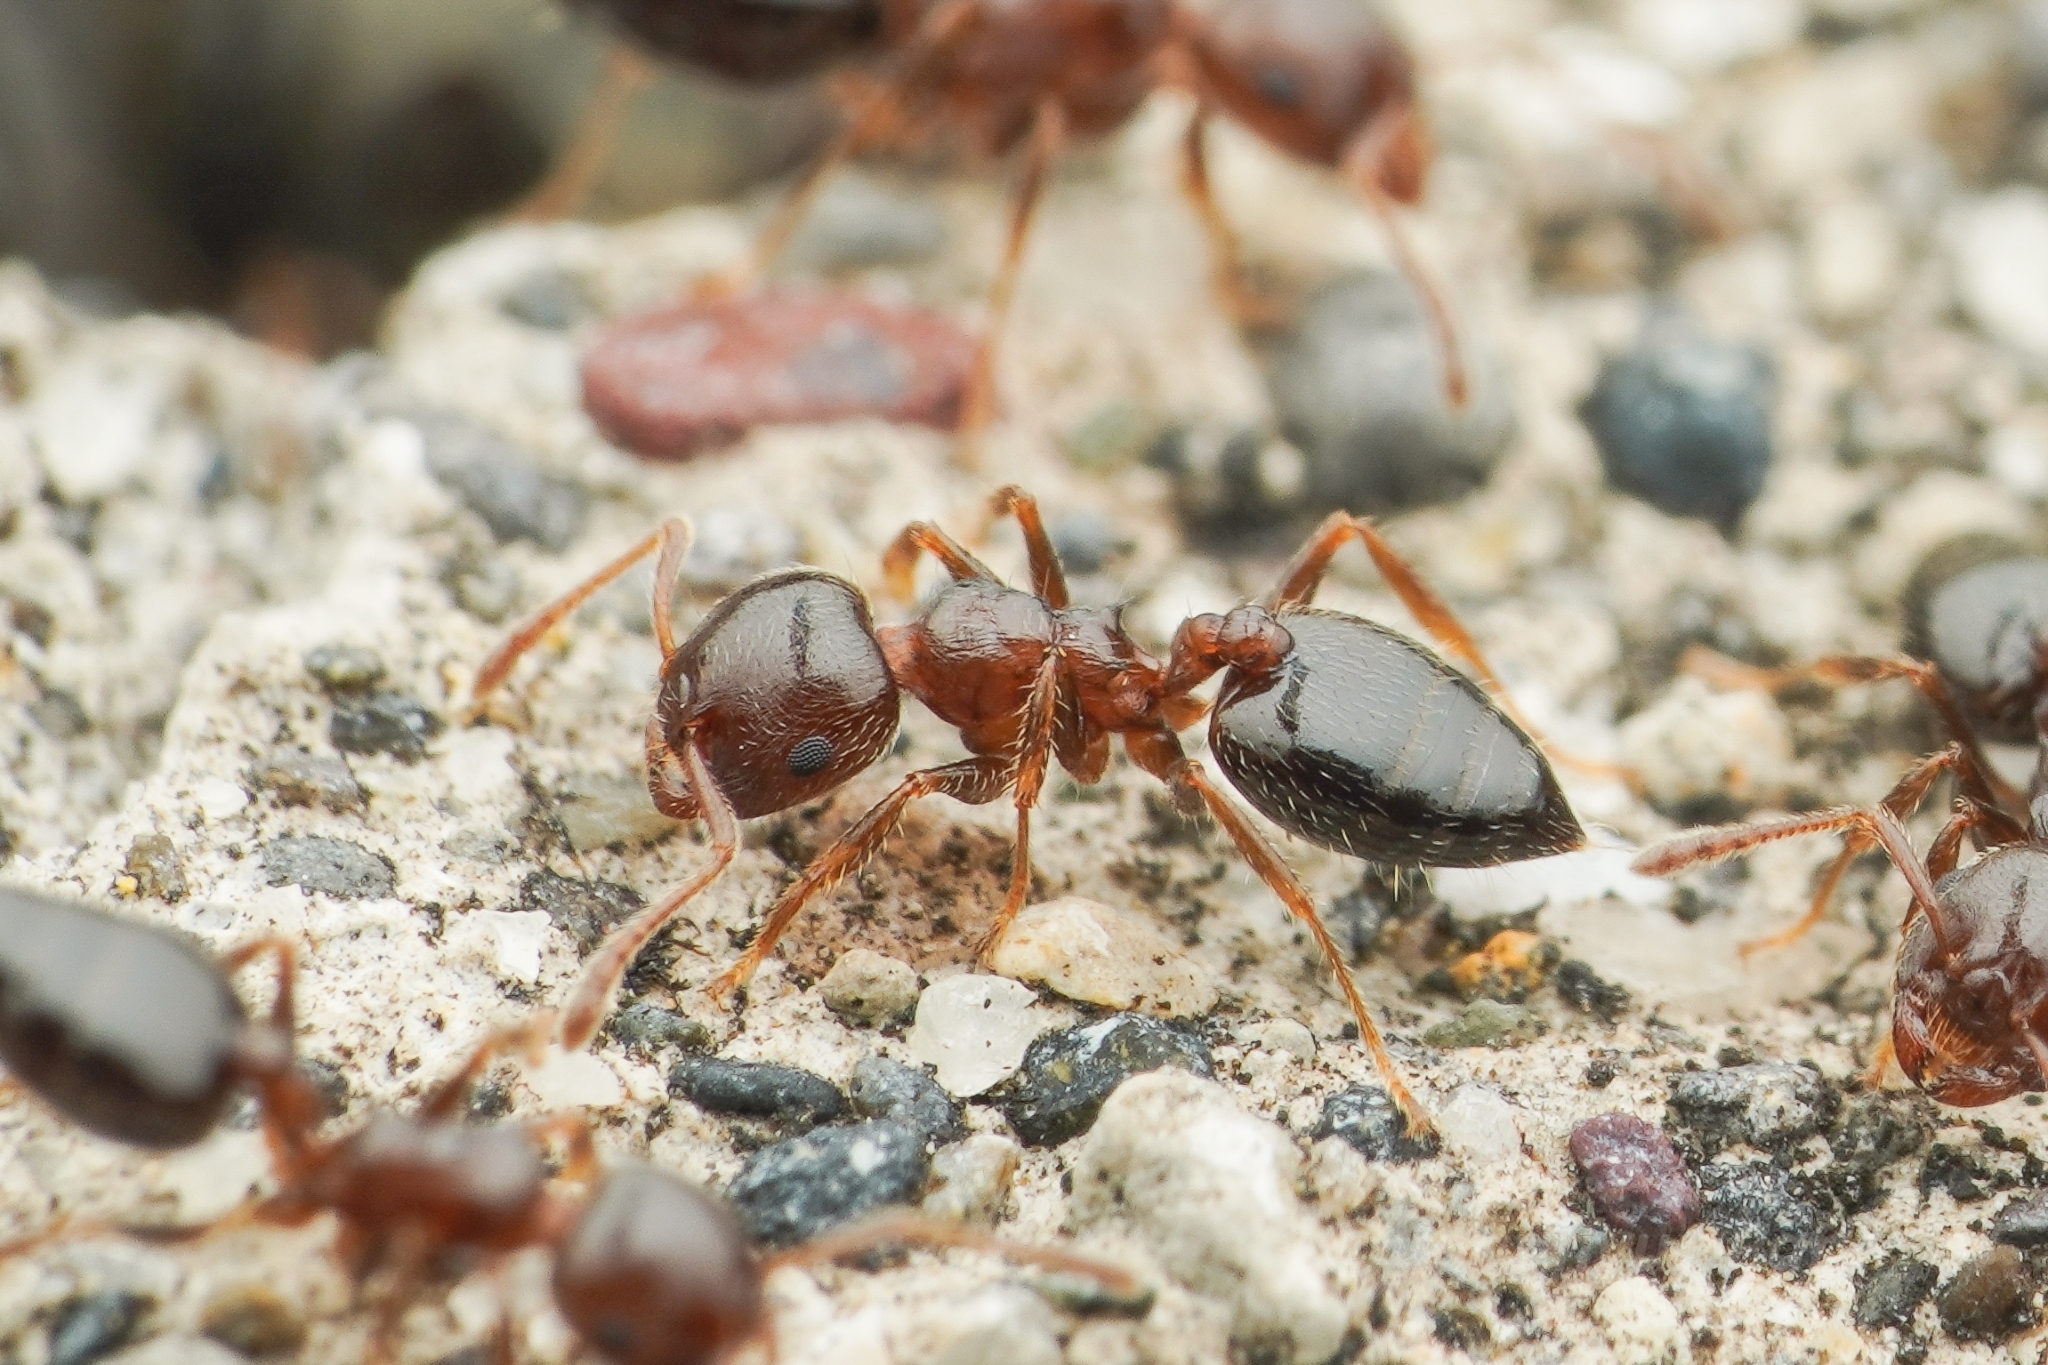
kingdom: Animalia
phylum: Arthropoda
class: Insecta
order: Hymenoptera
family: Formicidae
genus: Crematogaster
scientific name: Crematogaster matsumurai
